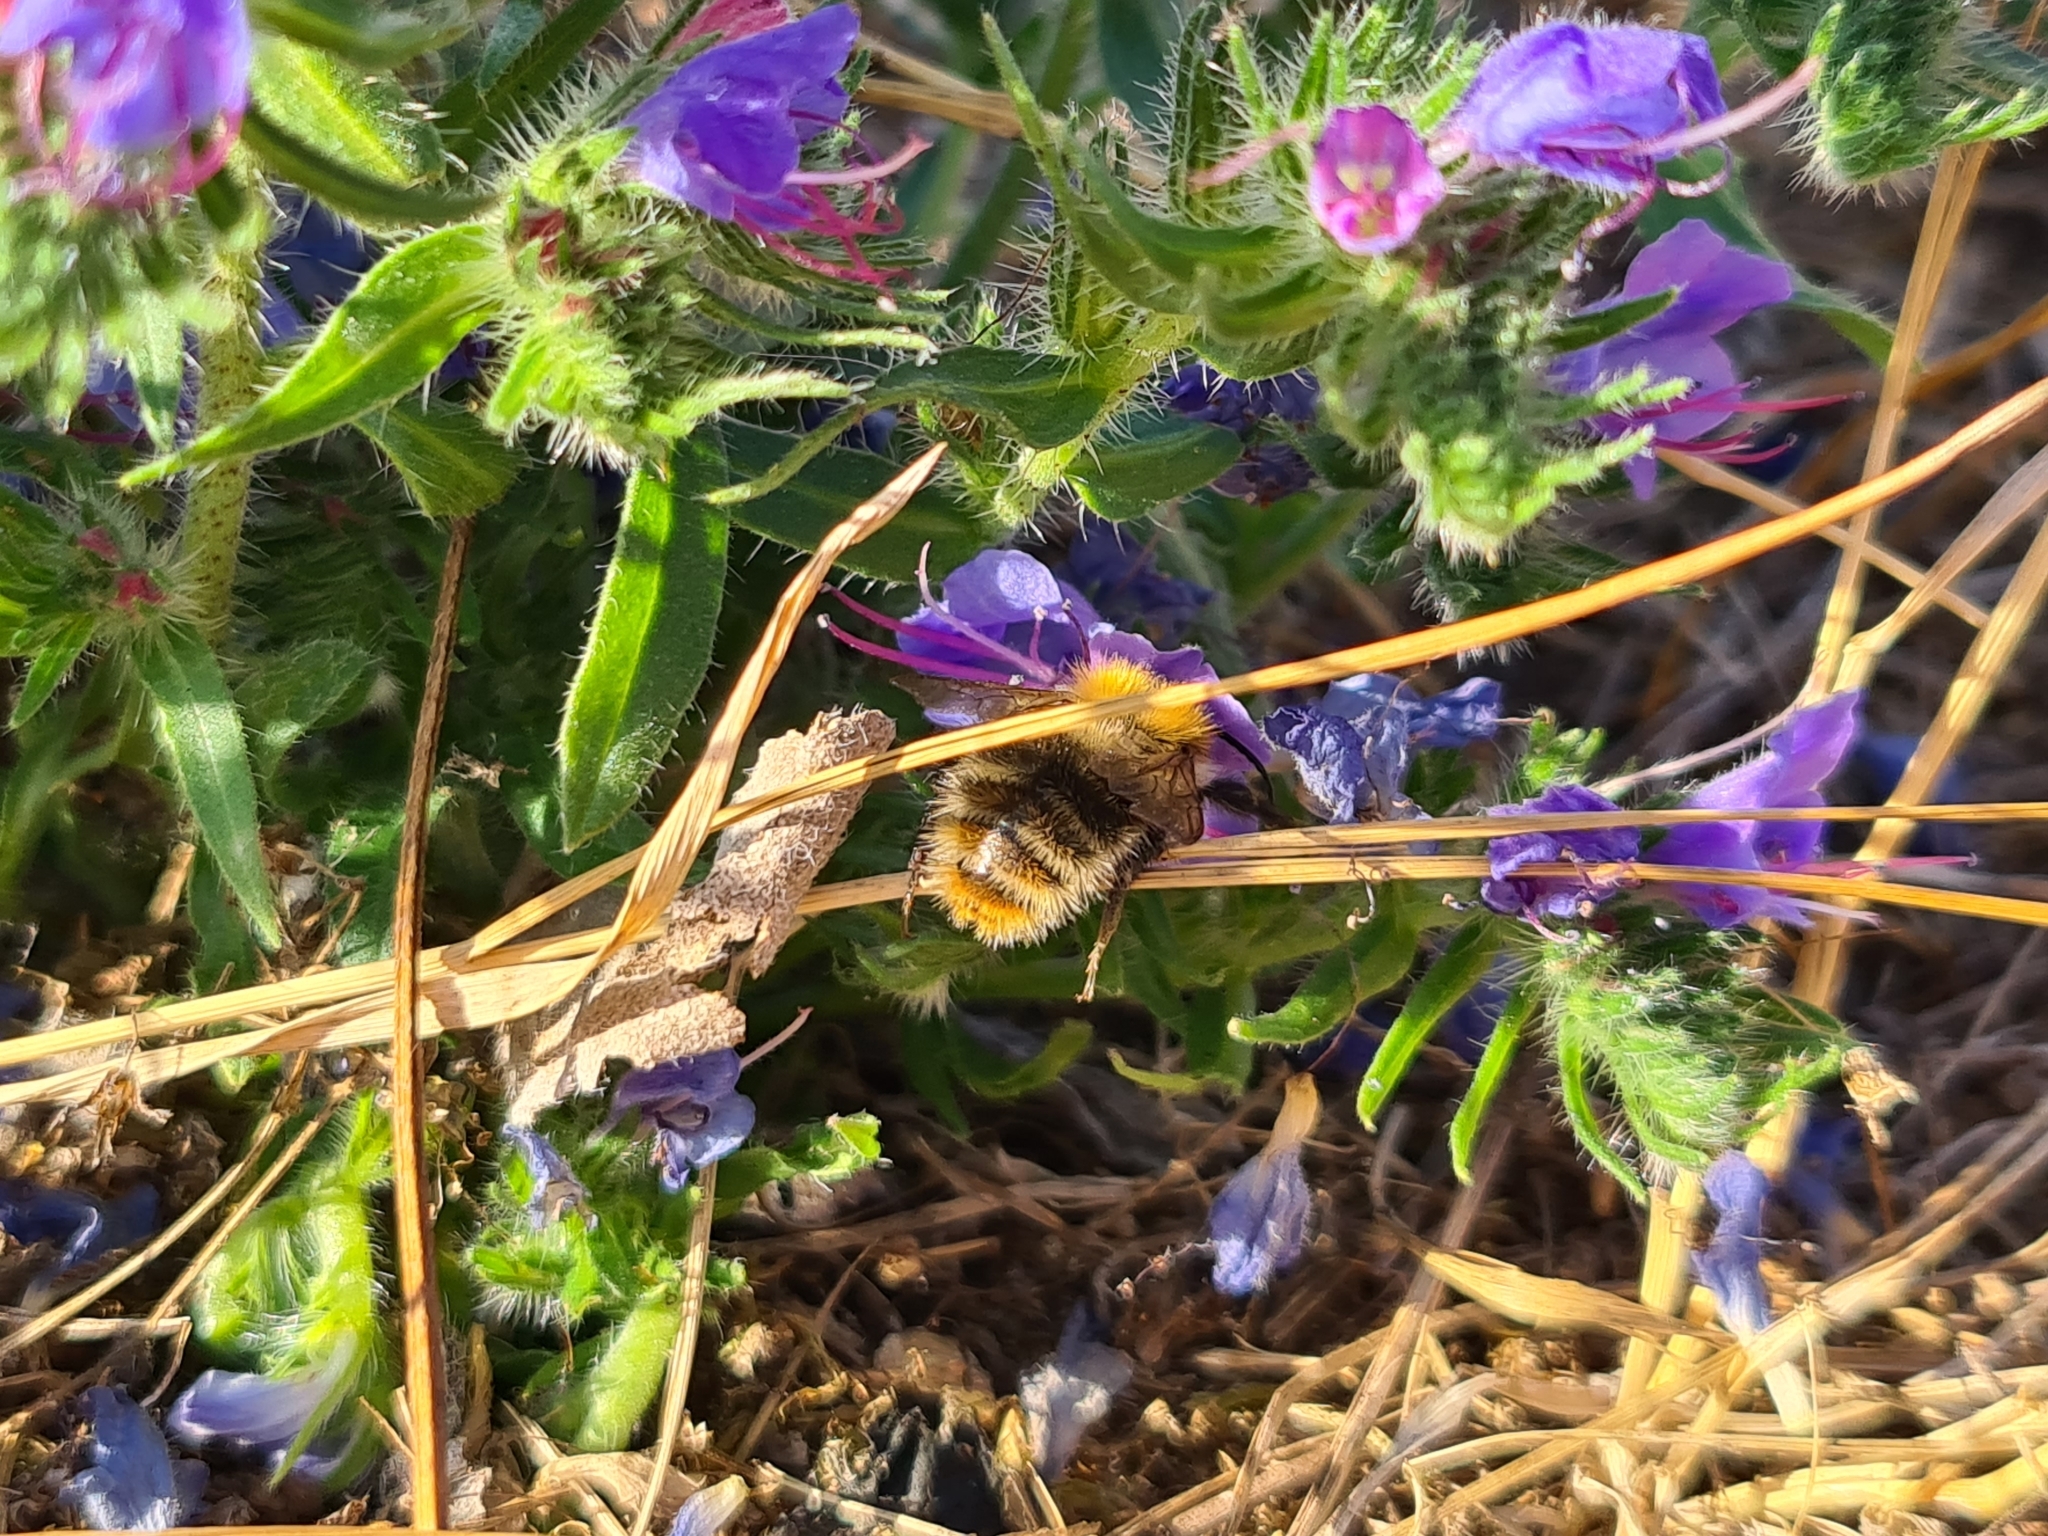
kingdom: Animalia
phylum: Arthropoda
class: Insecta
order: Hymenoptera
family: Apidae
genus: Bombus
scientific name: Bombus pascuorum
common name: Common carder bee
